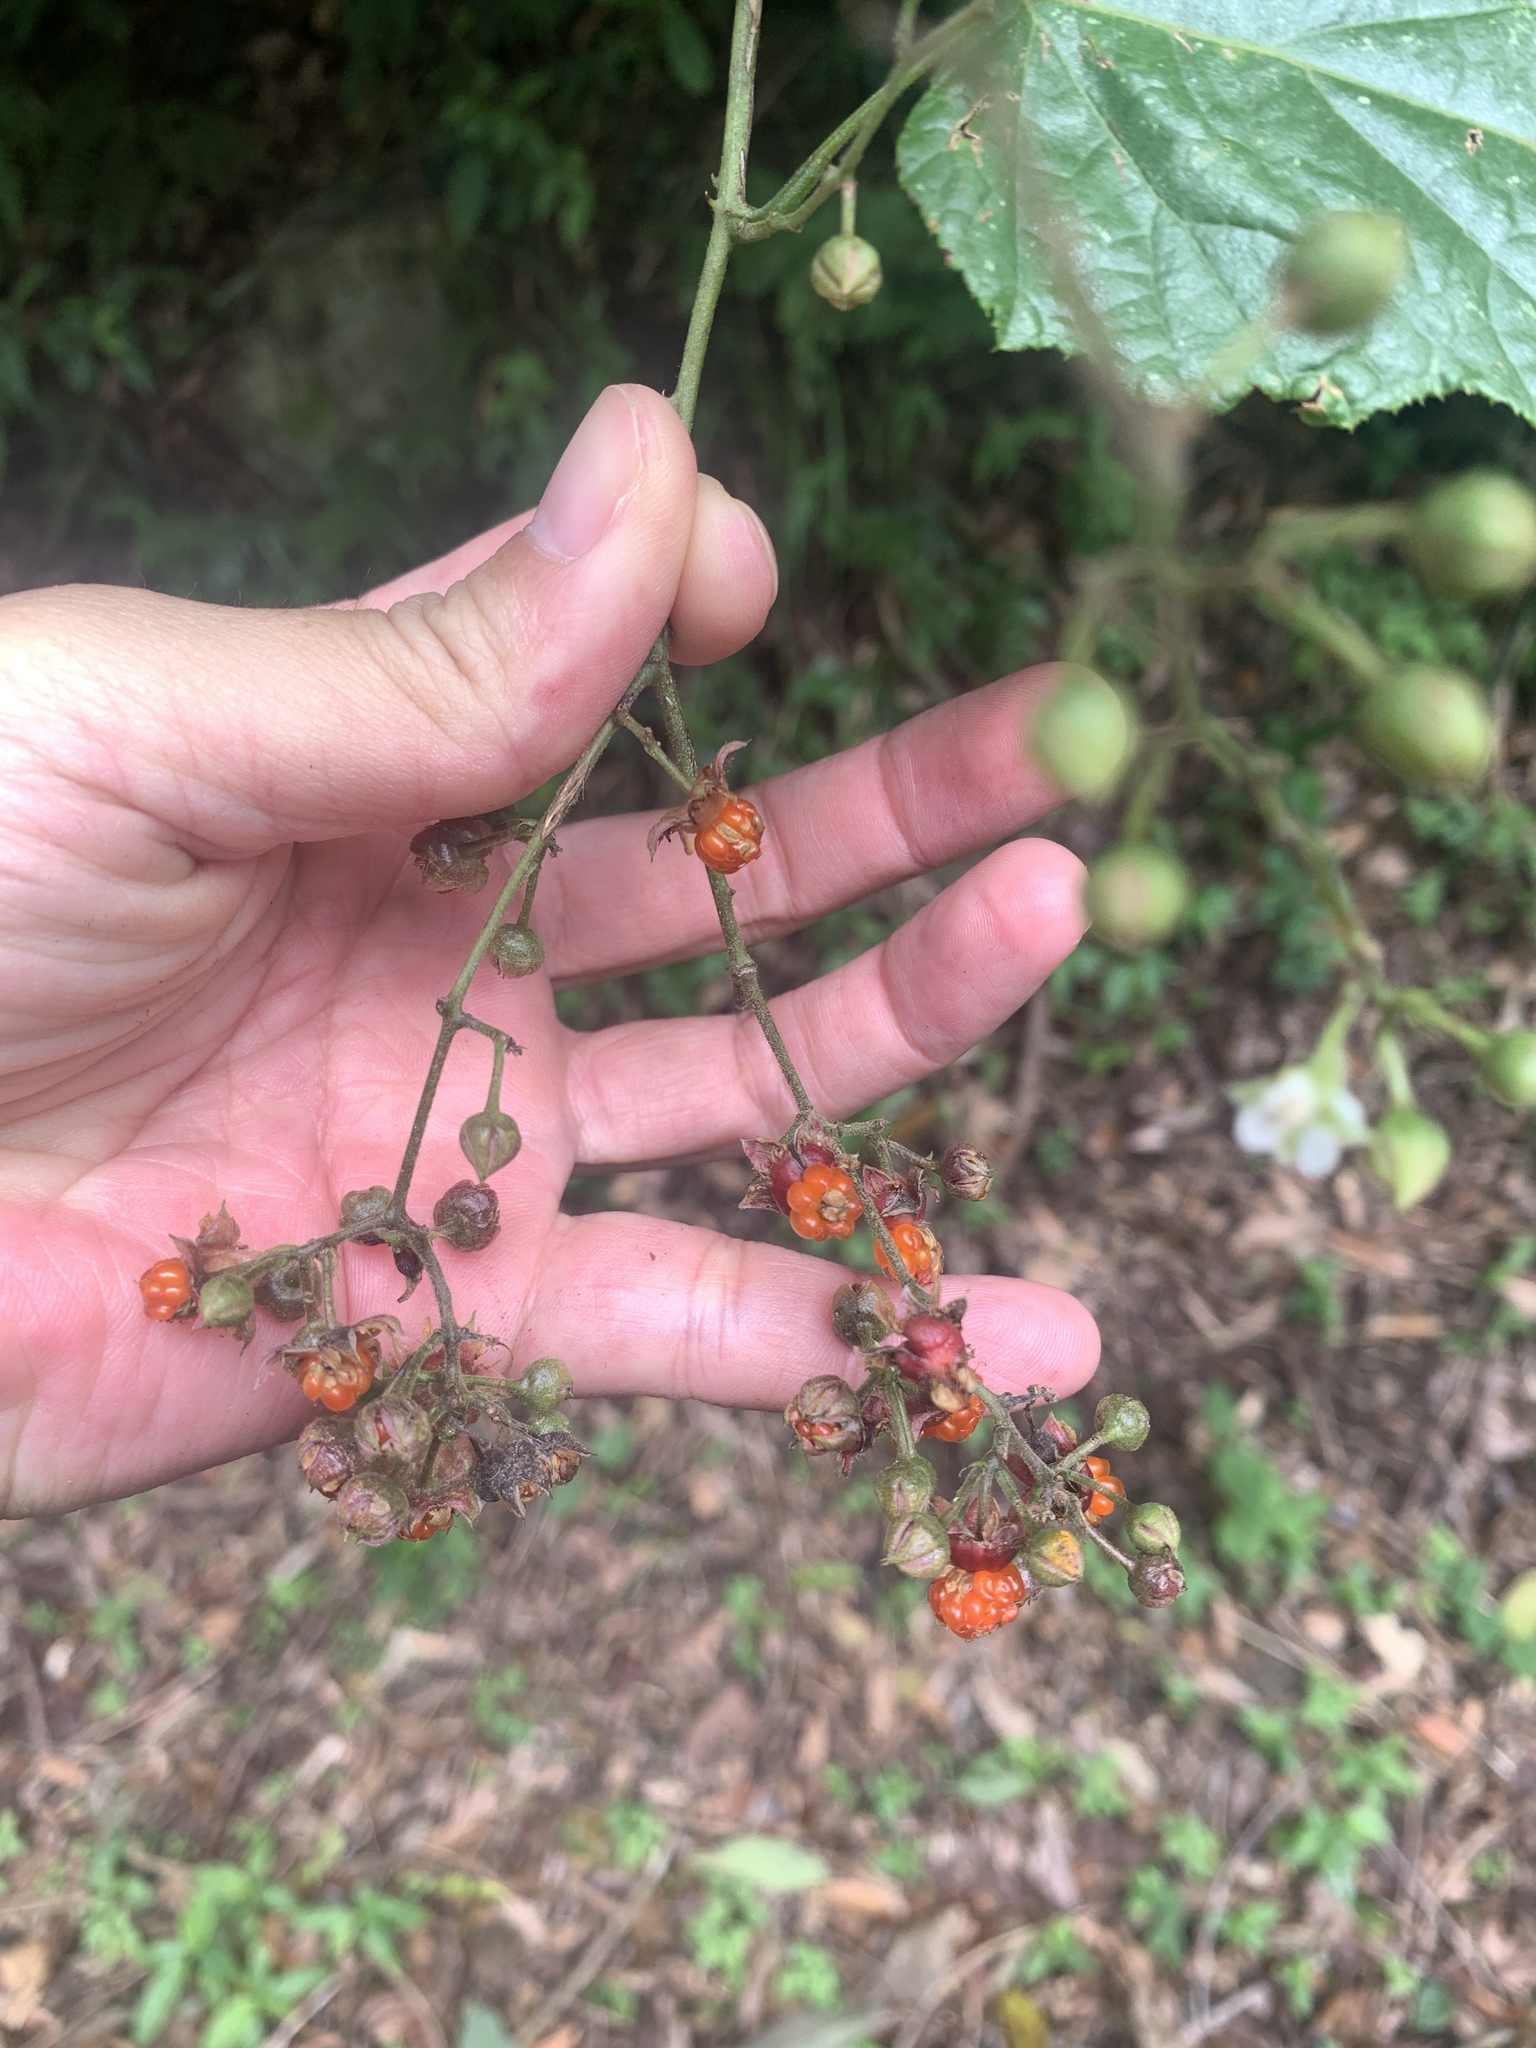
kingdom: Plantae
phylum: Tracheophyta
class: Magnoliopsida
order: Rosales
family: Rosaceae
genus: Rubus
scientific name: Rubus lambertianus
